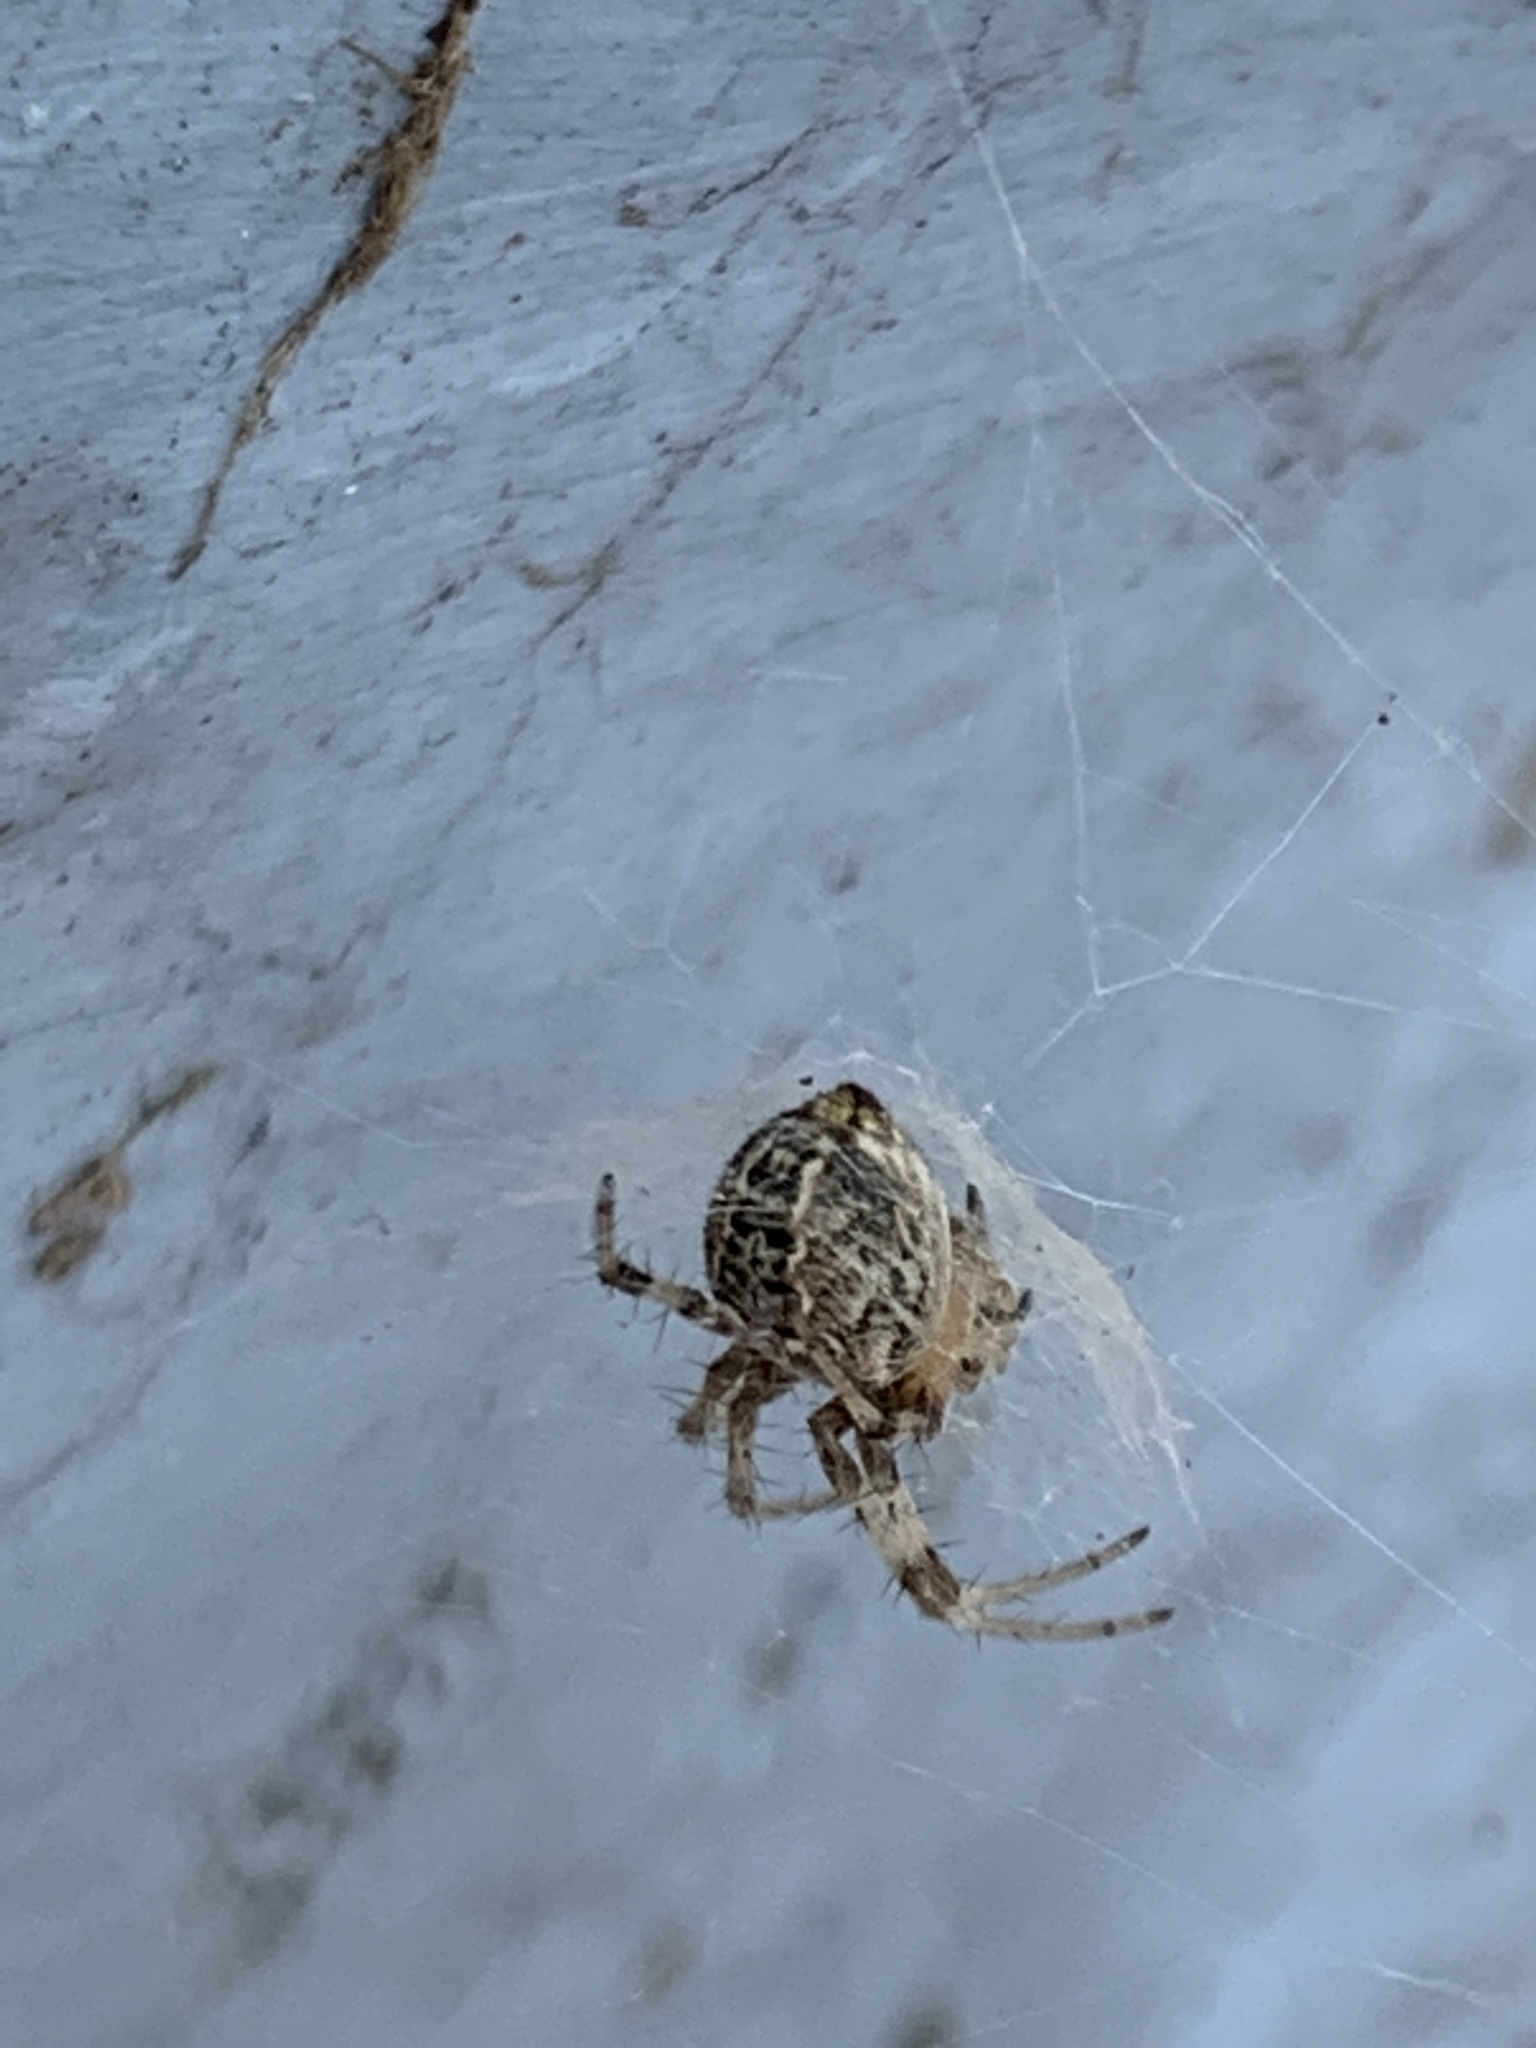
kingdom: Animalia
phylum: Arthropoda
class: Arachnida
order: Araneae
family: Araneidae
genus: Metepeira
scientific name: Metepeira
